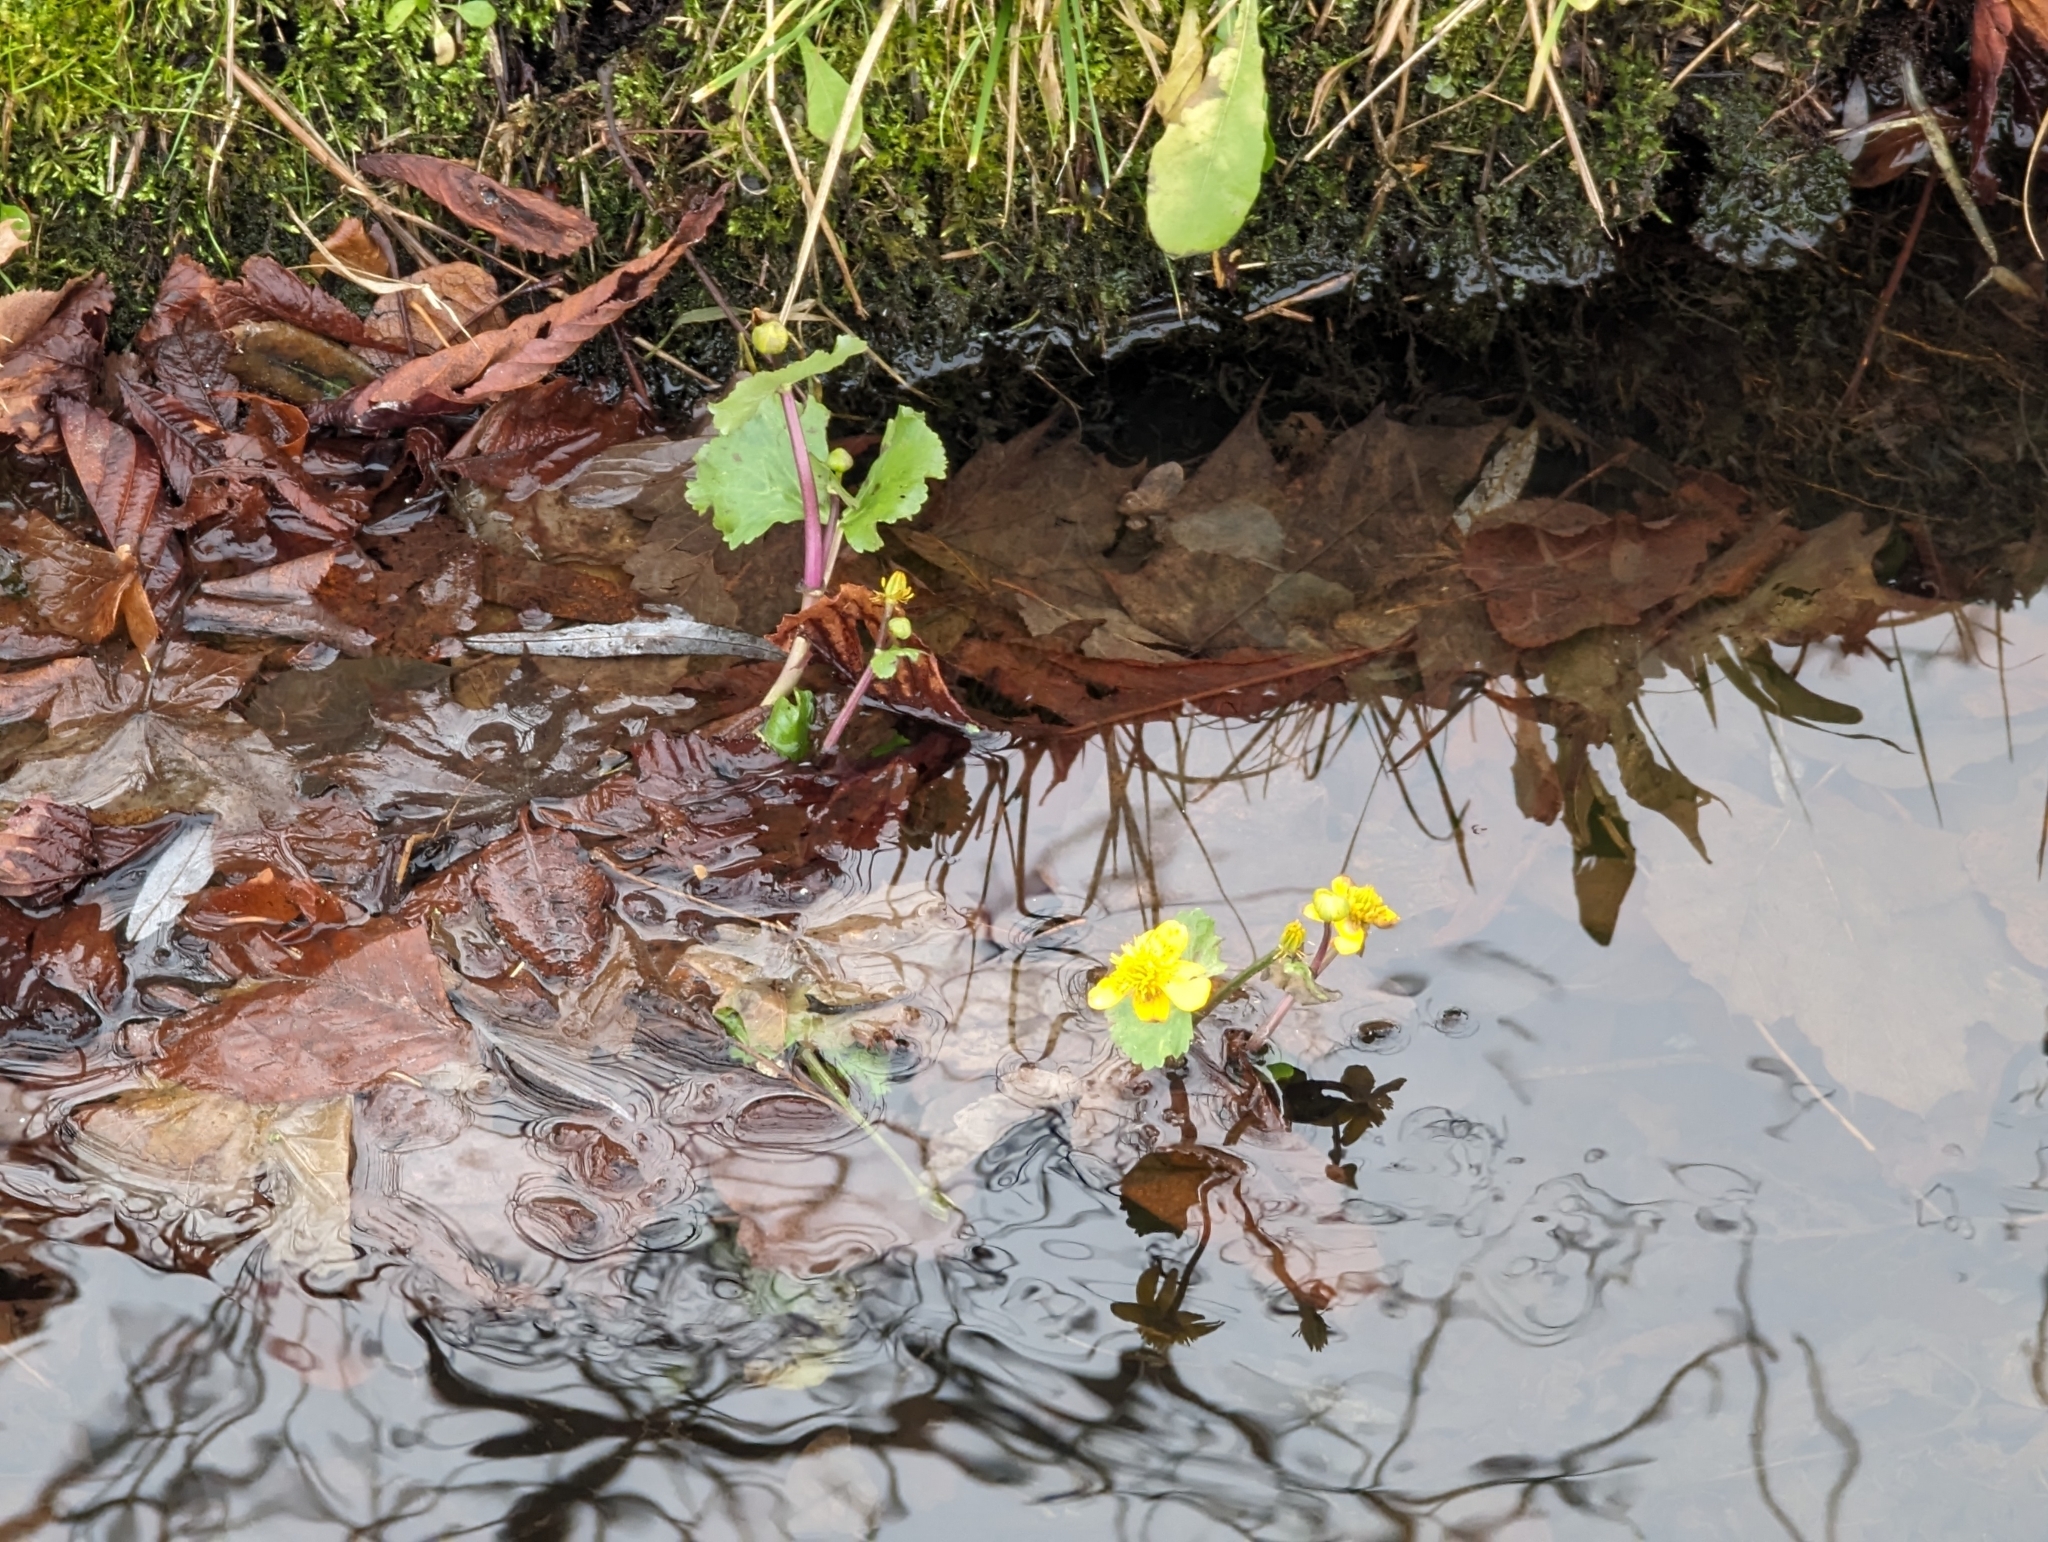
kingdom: Plantae
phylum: Tracheophyta
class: Magnoliopsida
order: Ranunculales
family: Ranunculaceae
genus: Caltha
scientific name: Caltha palustris
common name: Marsh marigold
